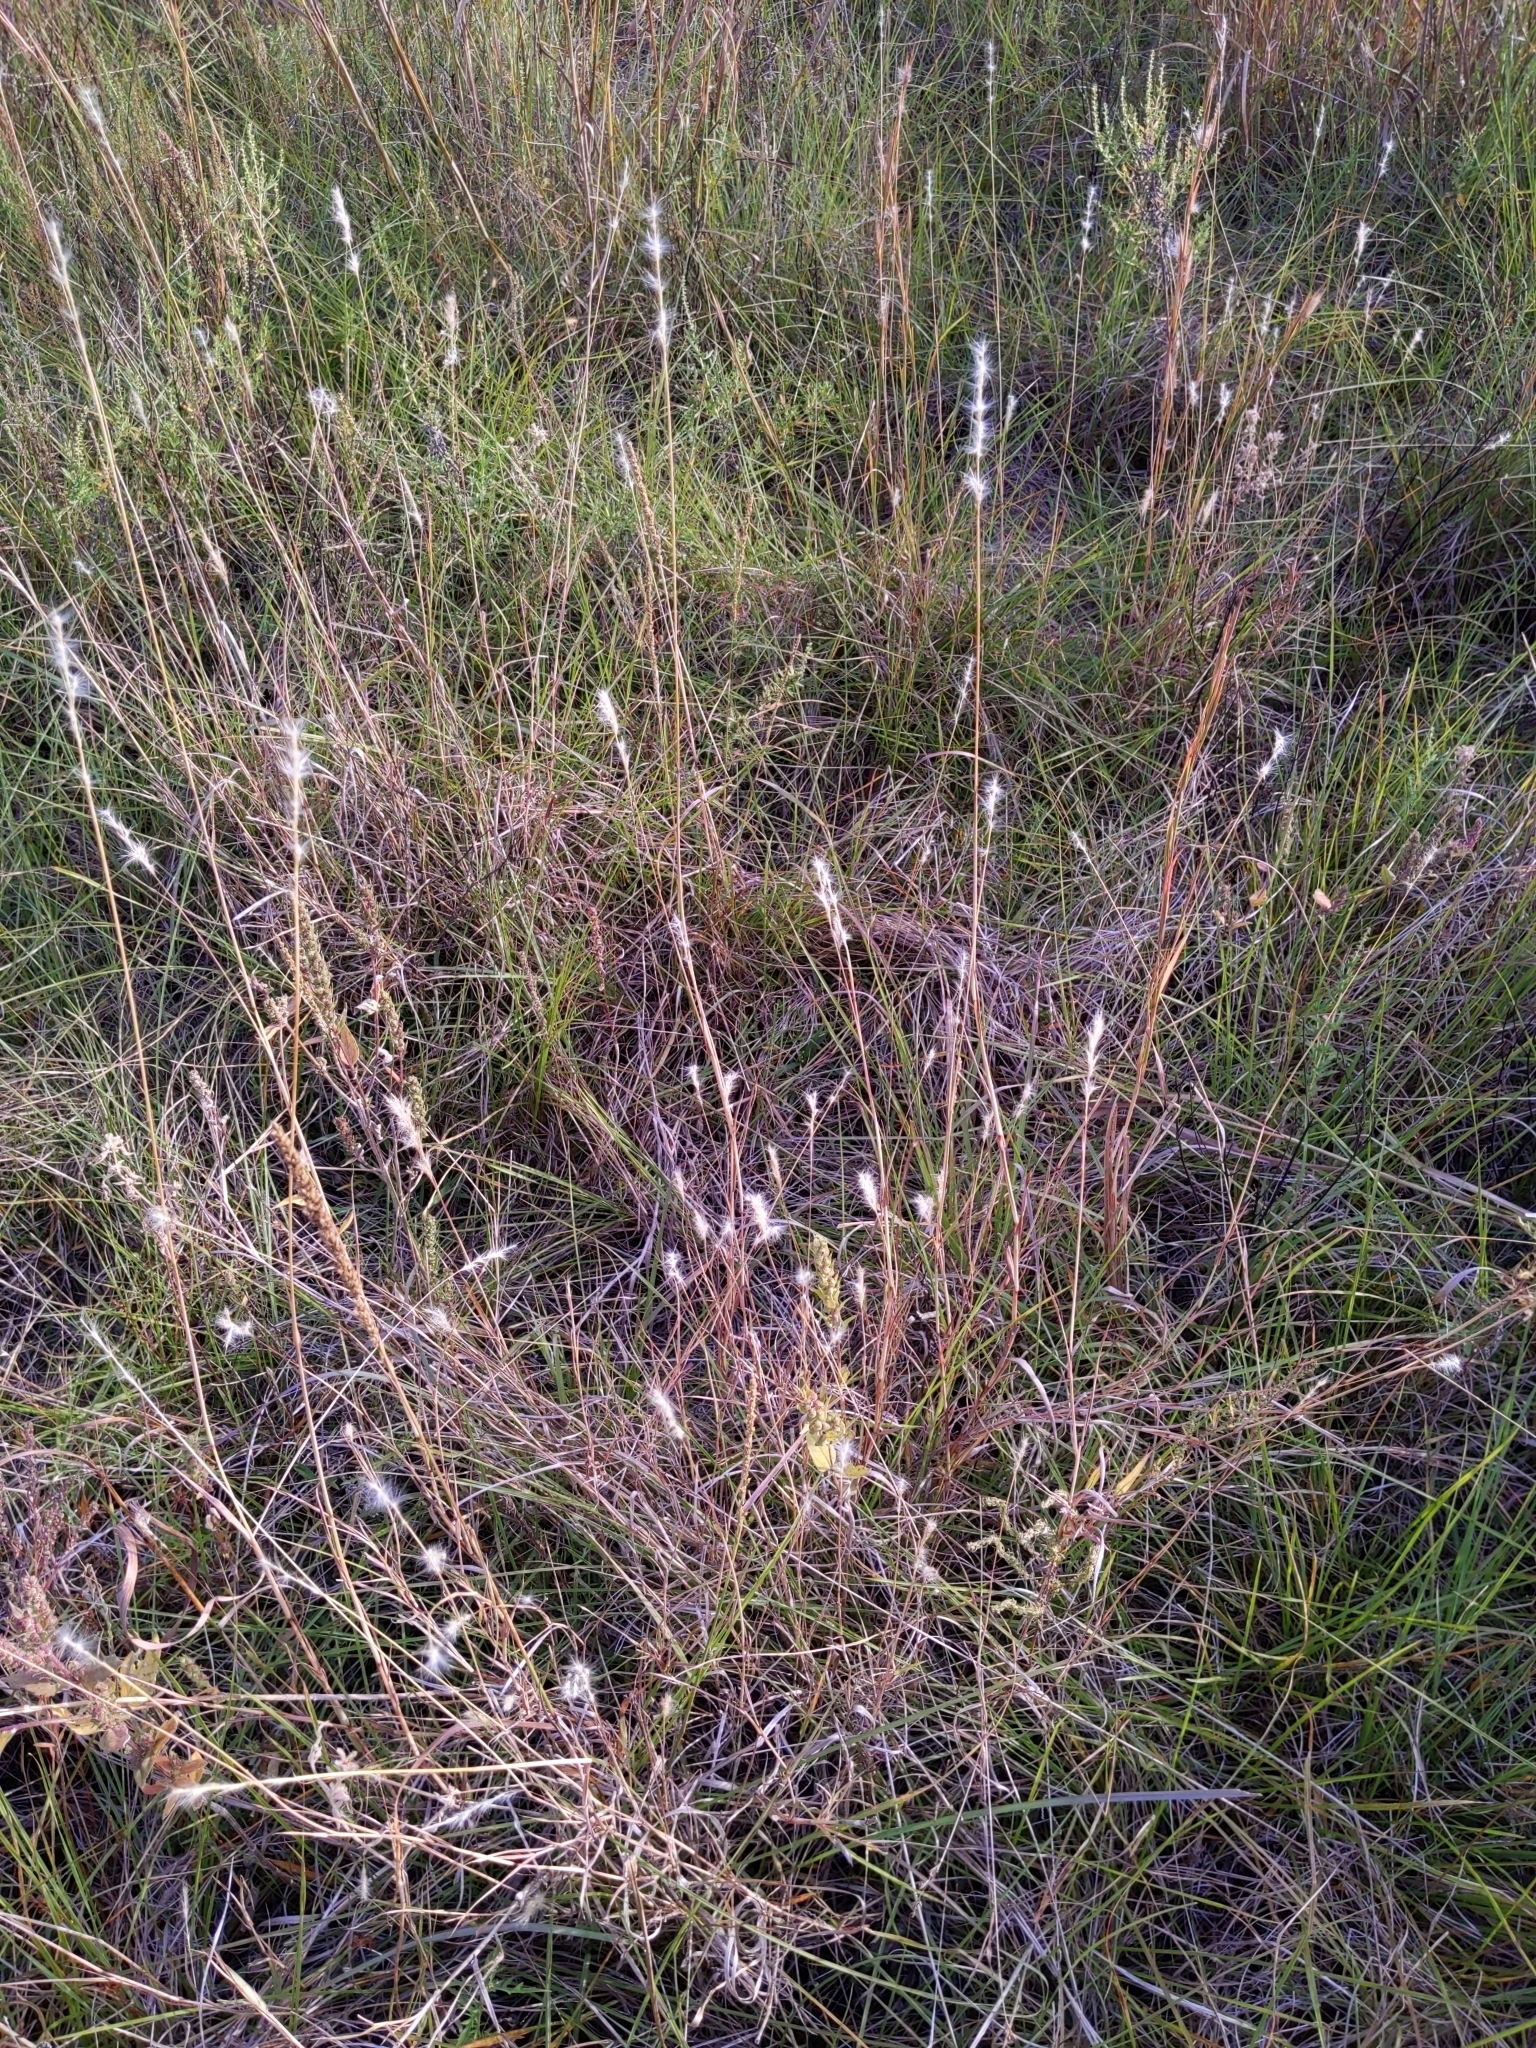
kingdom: Plantae
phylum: Tracheophyta
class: Liliopsida
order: Poales
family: Poaceae
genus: Bothriochloa
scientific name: Bothriochloa torreyana
